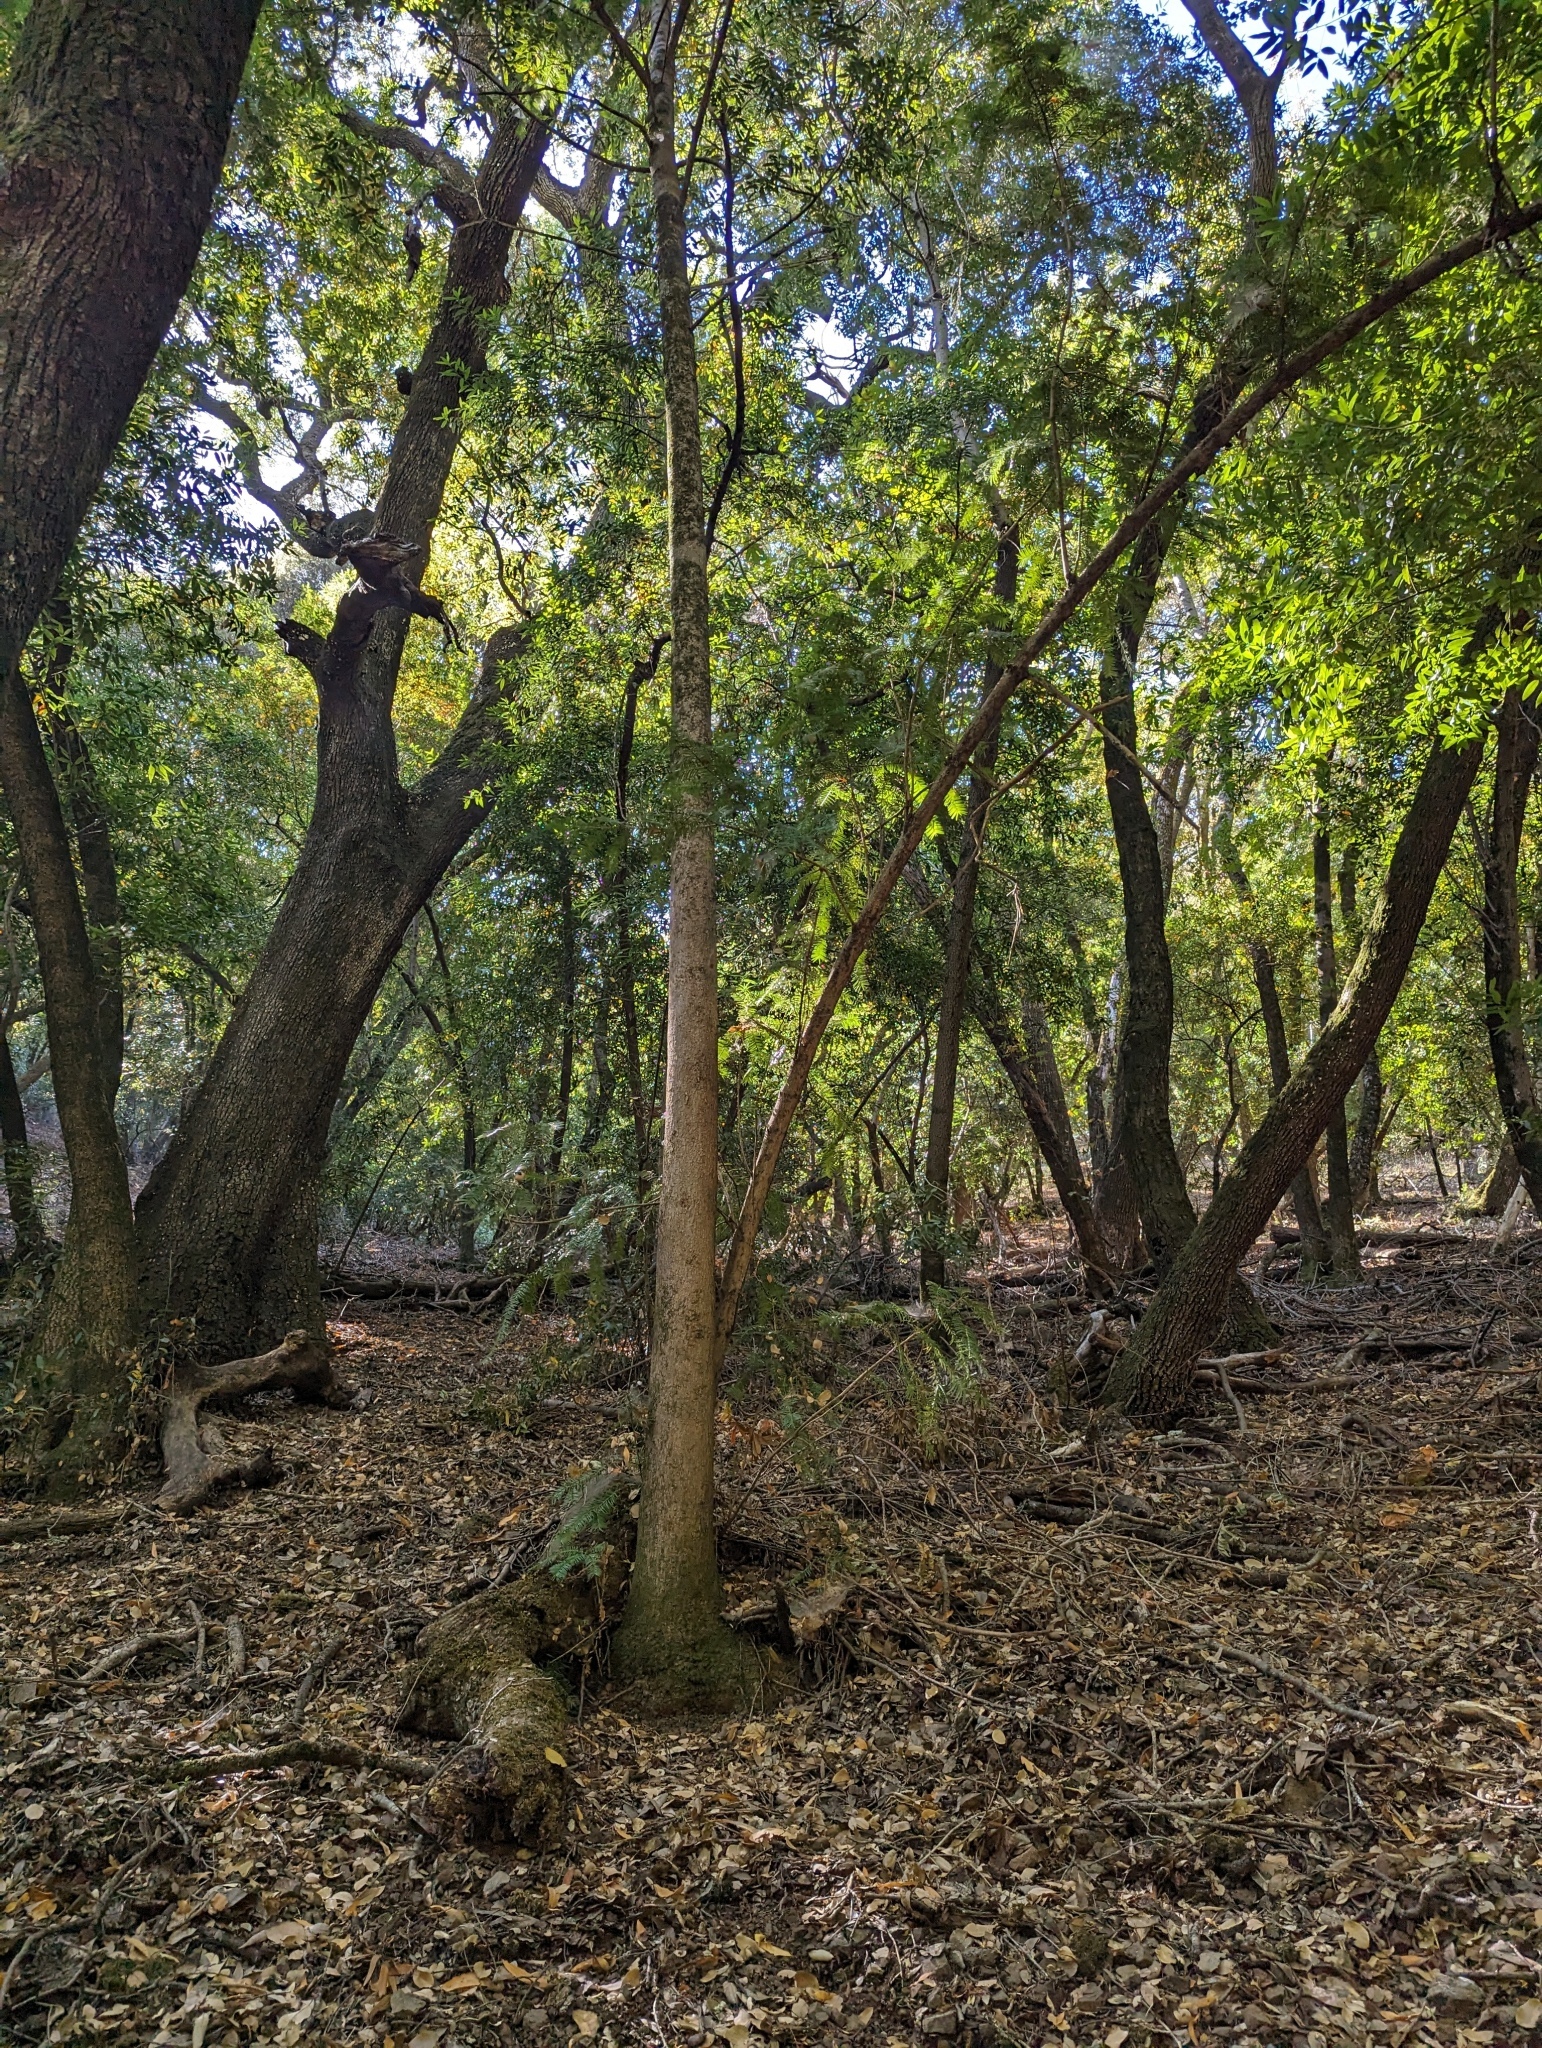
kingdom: Plantae
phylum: Tracheophyta
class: Pinopsida
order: Pinales
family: Taxaceae
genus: Torreya
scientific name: Torreya californica
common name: California torreya
